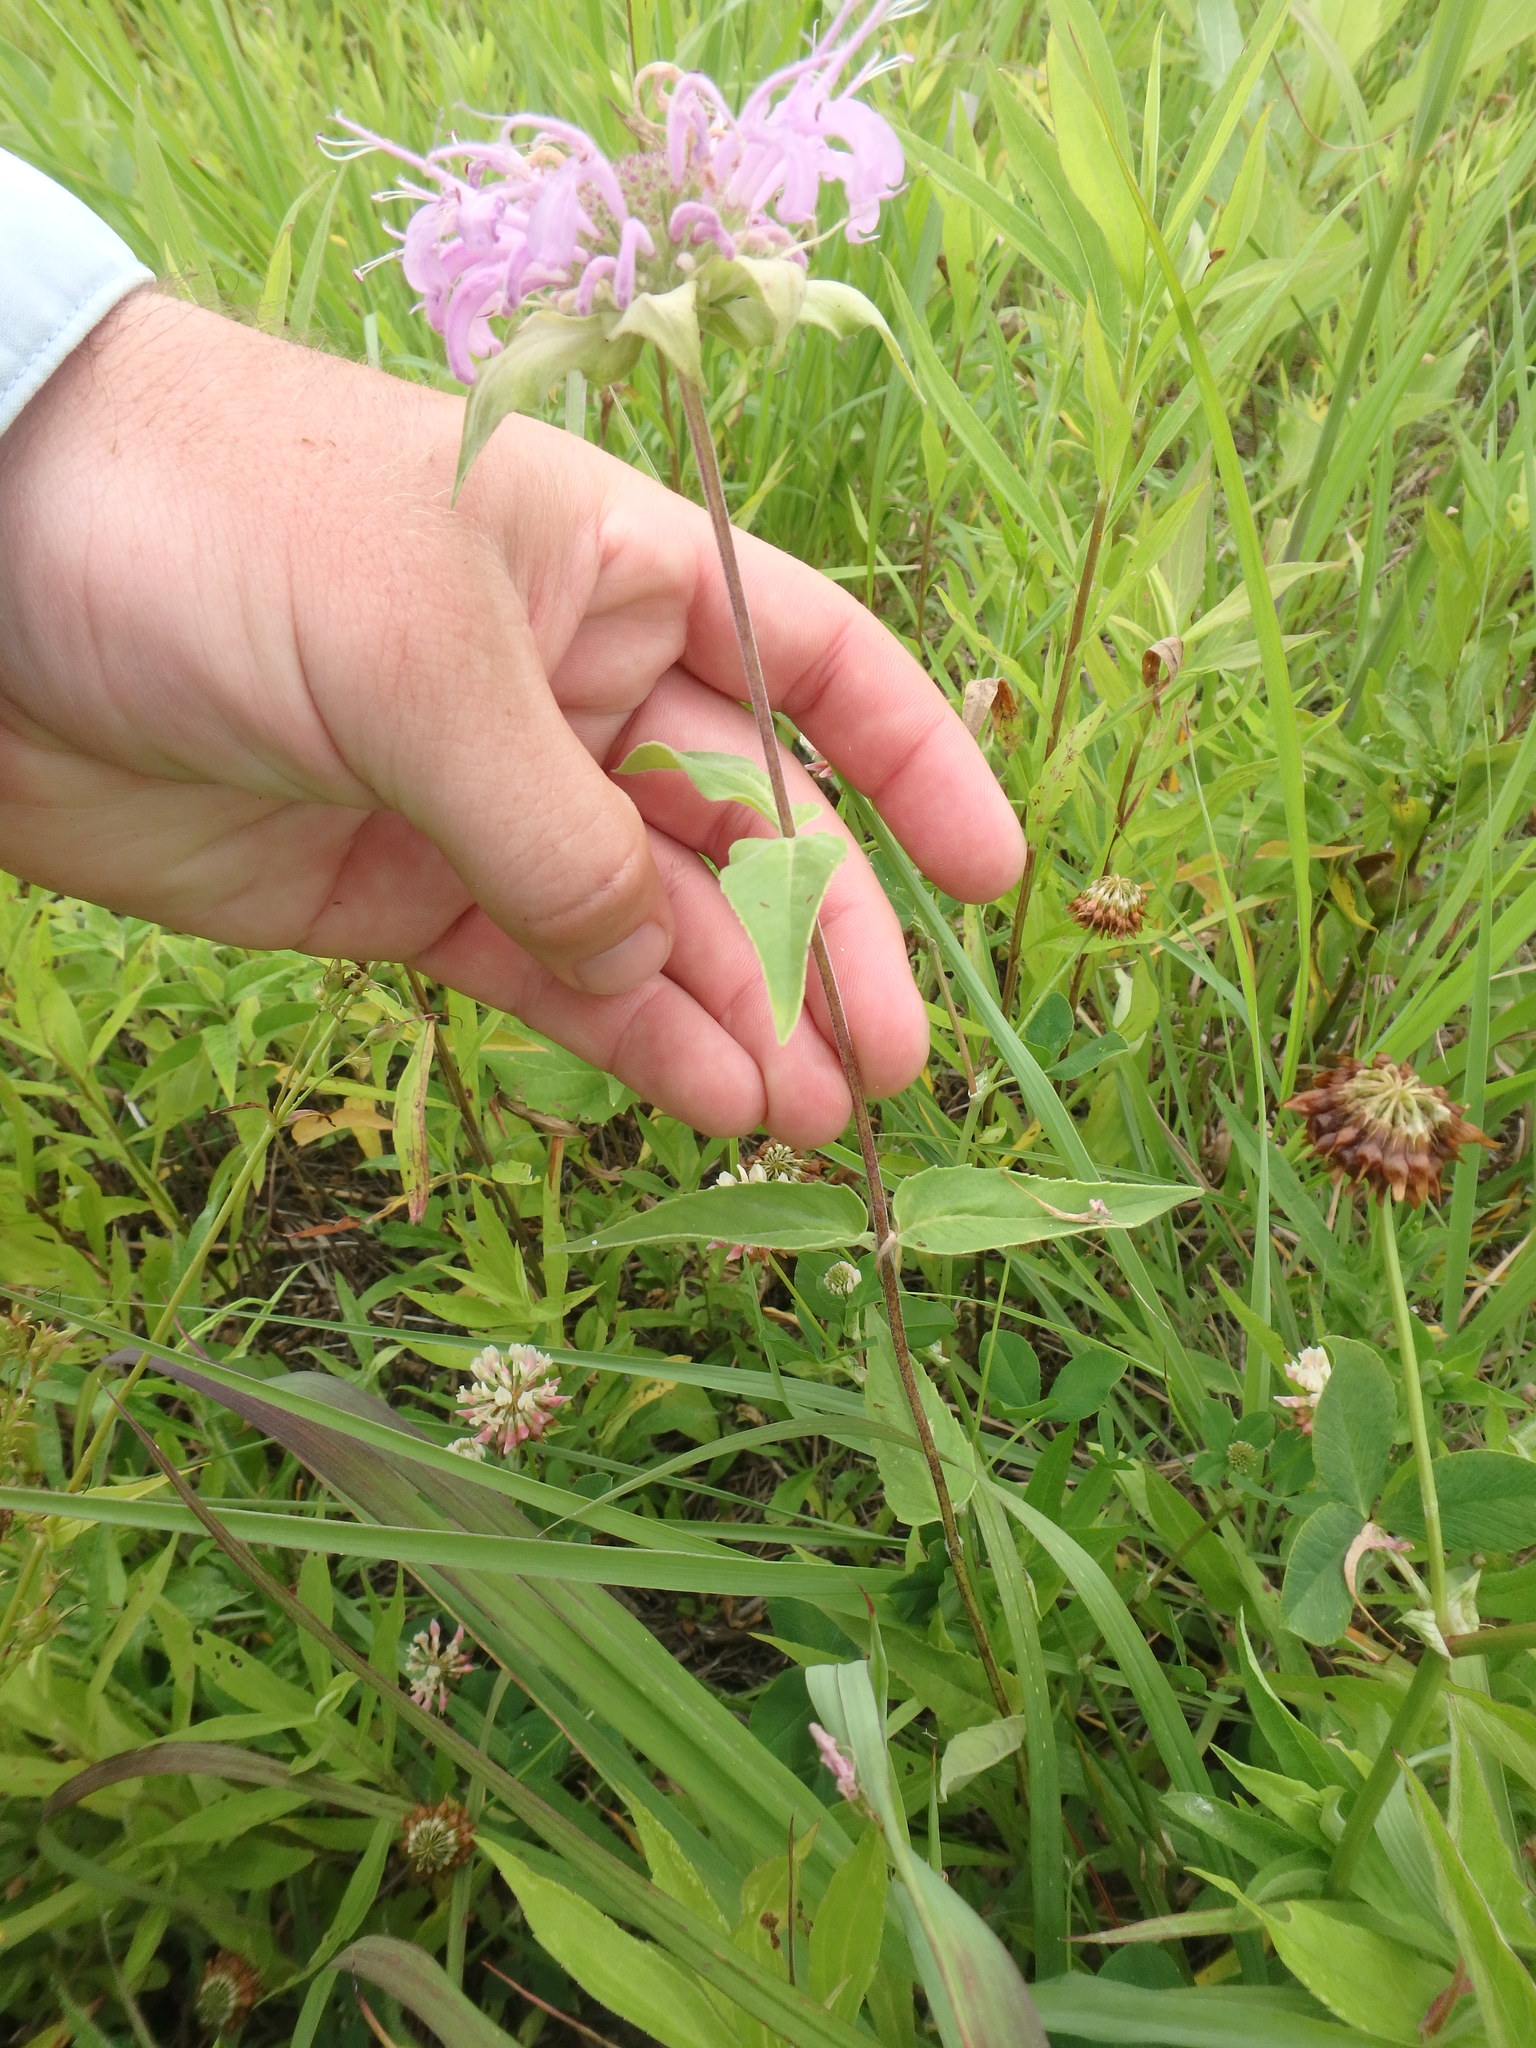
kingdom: Plantae
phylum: Tracheophyta
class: Magnoliopsida
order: Lamiales
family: Lamiaceae
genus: Monarda
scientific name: Monarda fistulosa
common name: Purple beebalm
